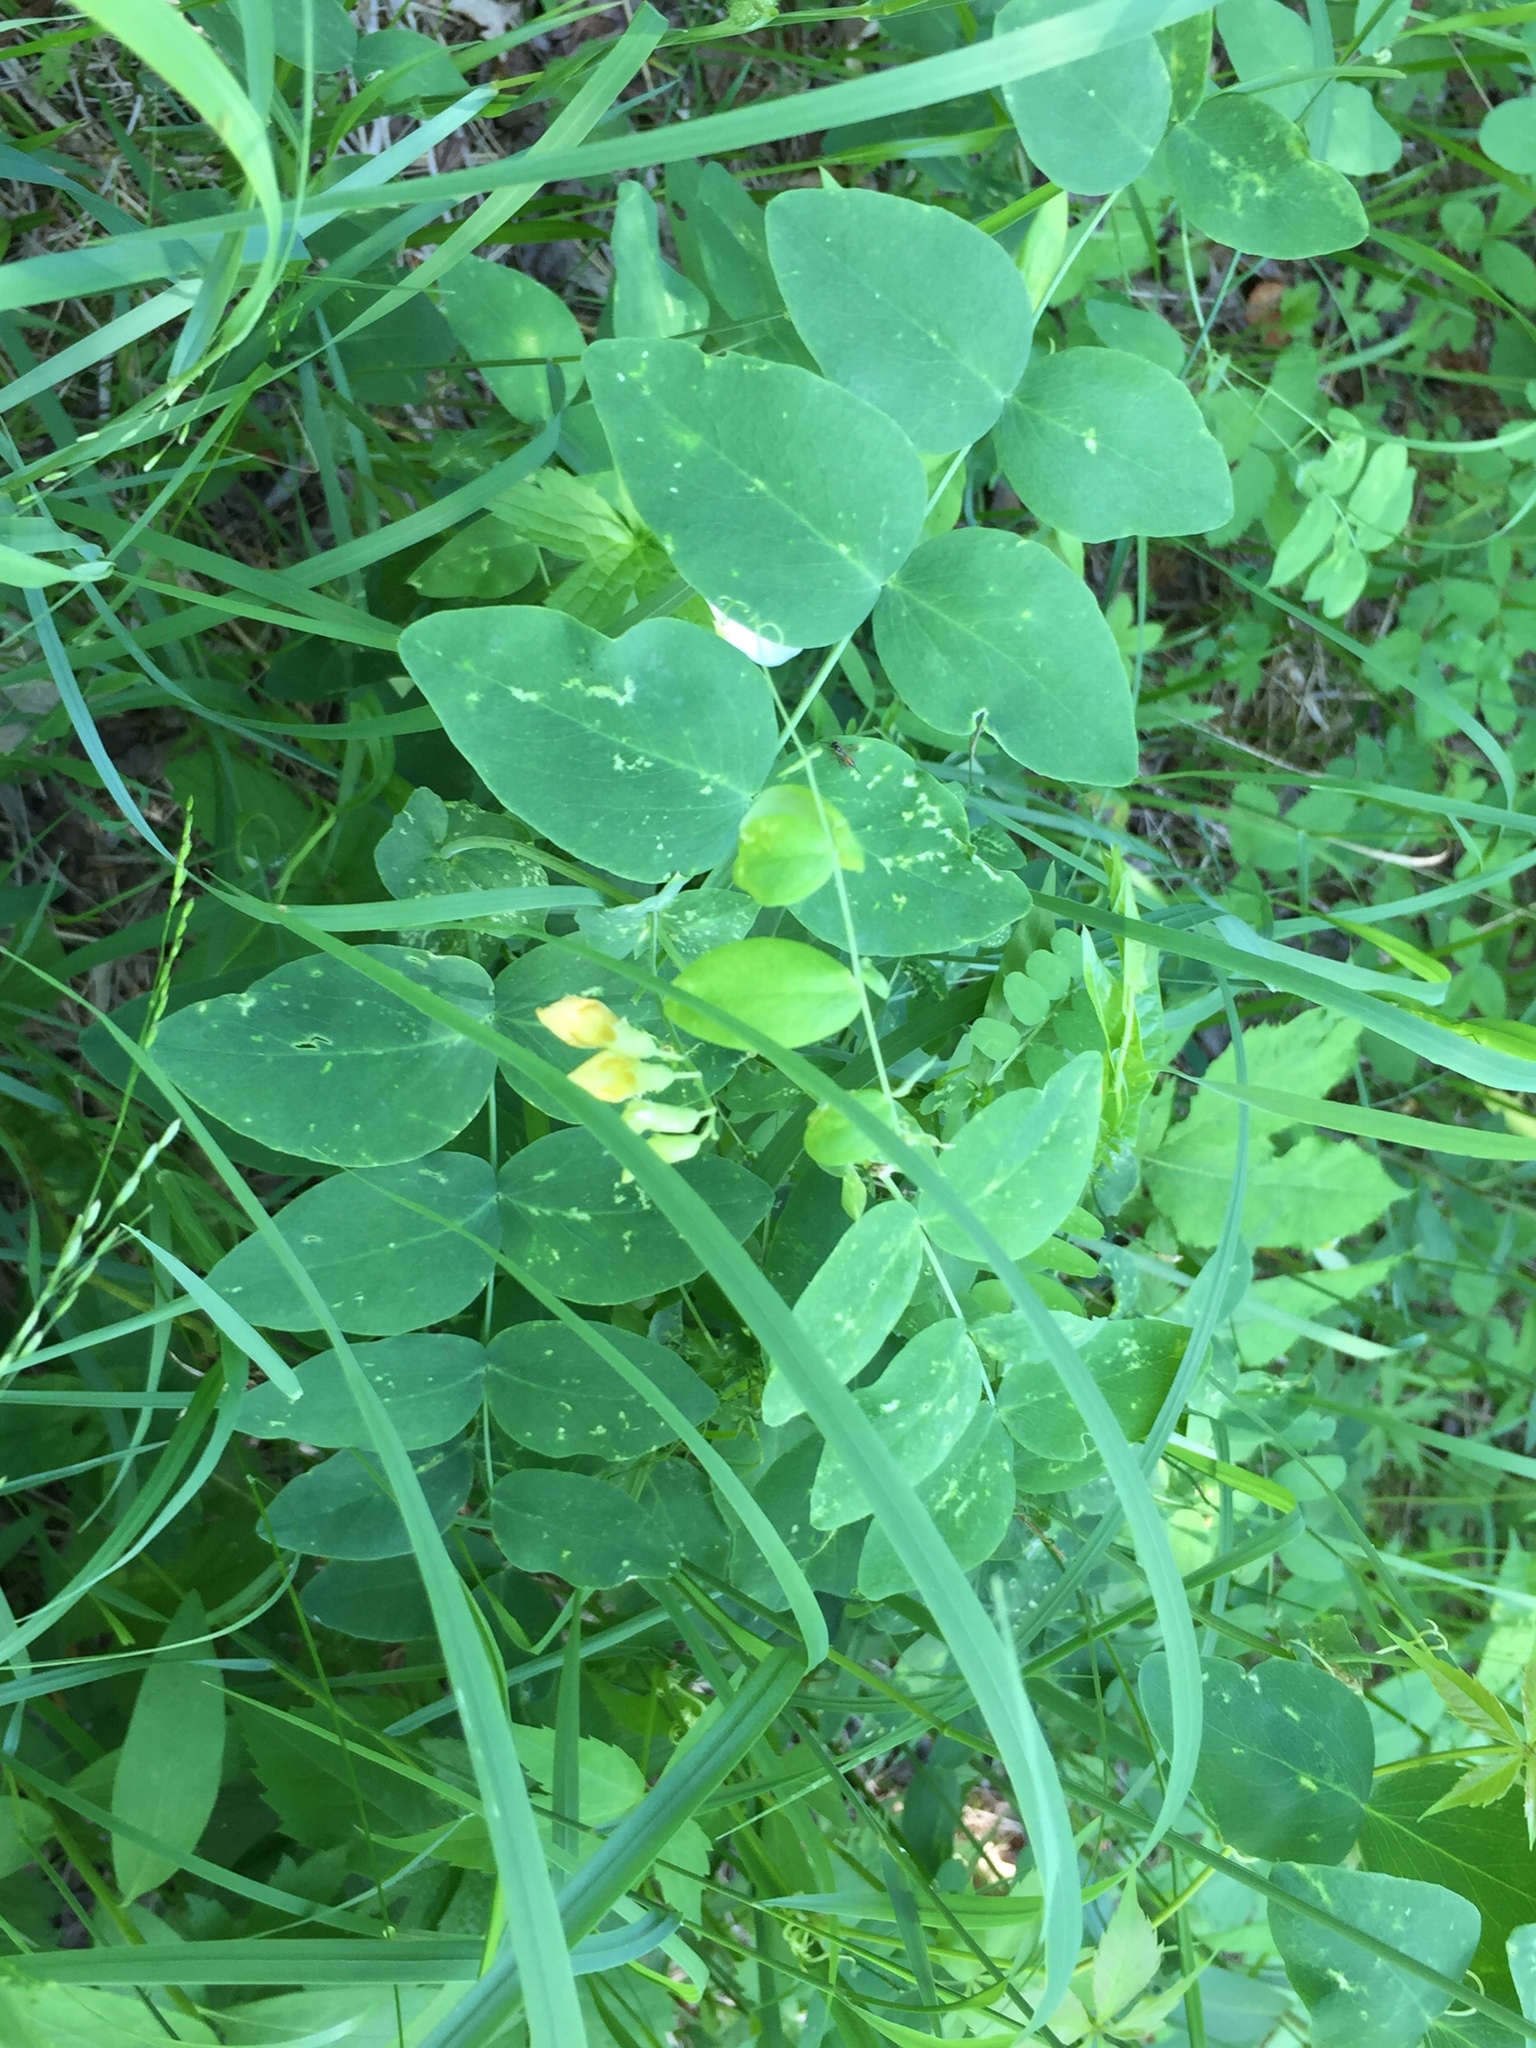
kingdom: Plantae
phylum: Tracheophyta
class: Magnoliopsida
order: Fabales
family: Fabaceae
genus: Lathyrus
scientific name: Lathyrus ochroleucus
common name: Pale vetchling
